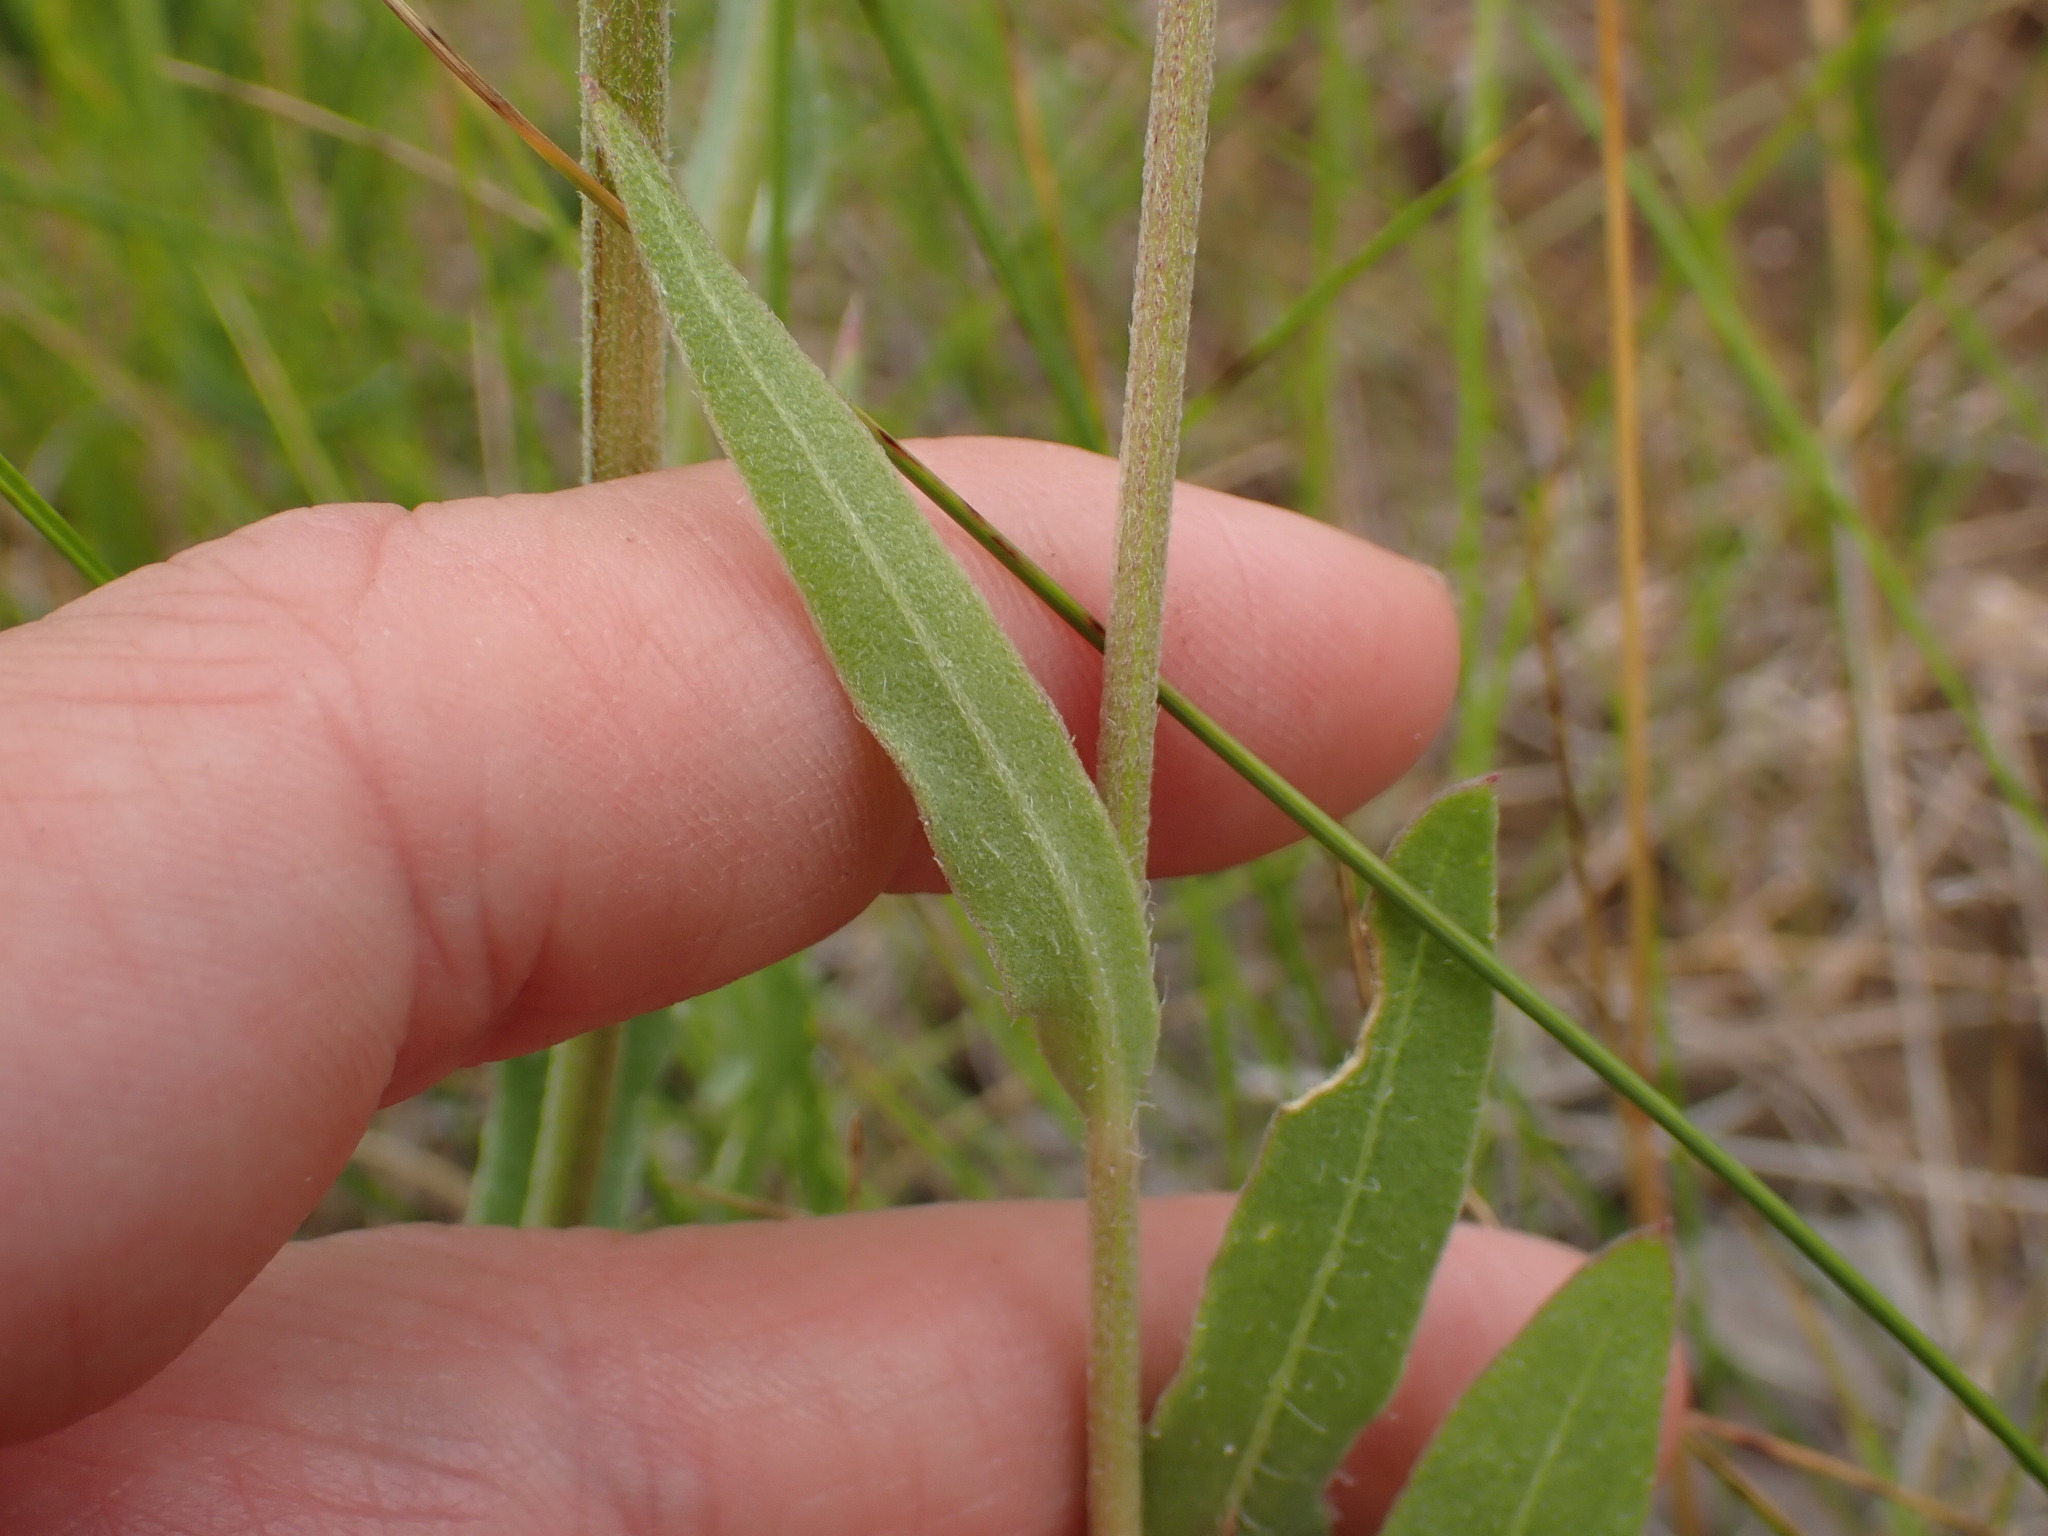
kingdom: Plantae
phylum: Tracheophyta
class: Magnoliopsida
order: Asterales
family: Asteraceae
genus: Gaillardia
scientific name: Gaillardia aristata
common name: Blanket-flower
